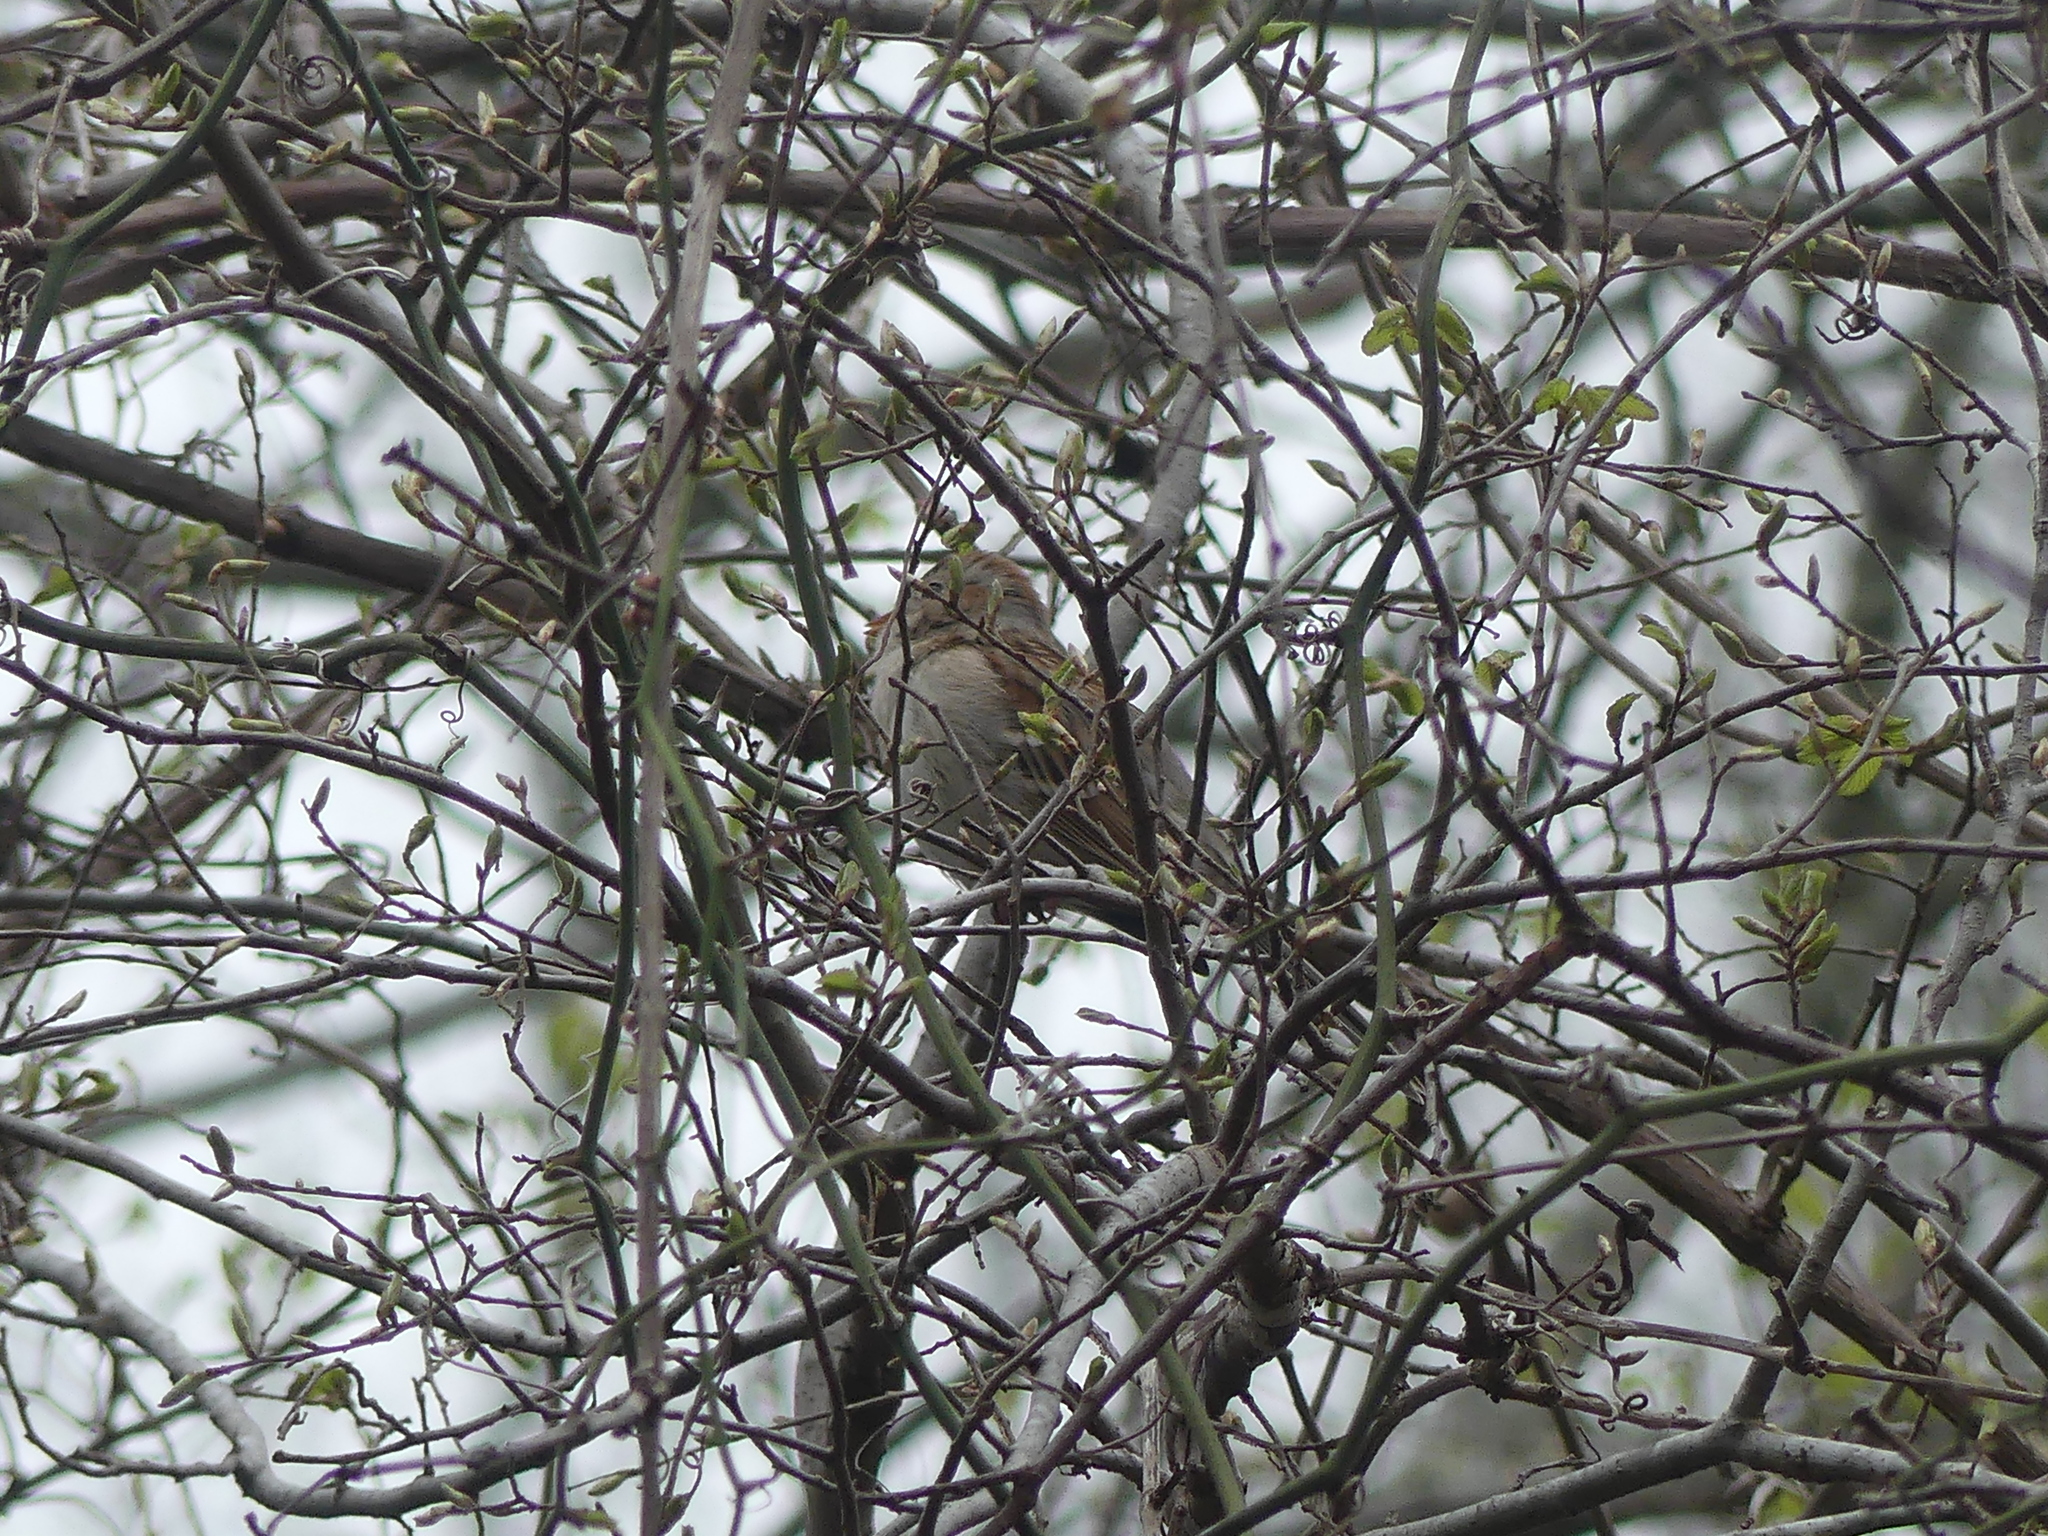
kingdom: Animalia
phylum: Chordata
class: Aves
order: Passeriformes
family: Passerellidae
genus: Spizella
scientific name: Spizella pusilla
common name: Field sparrow
